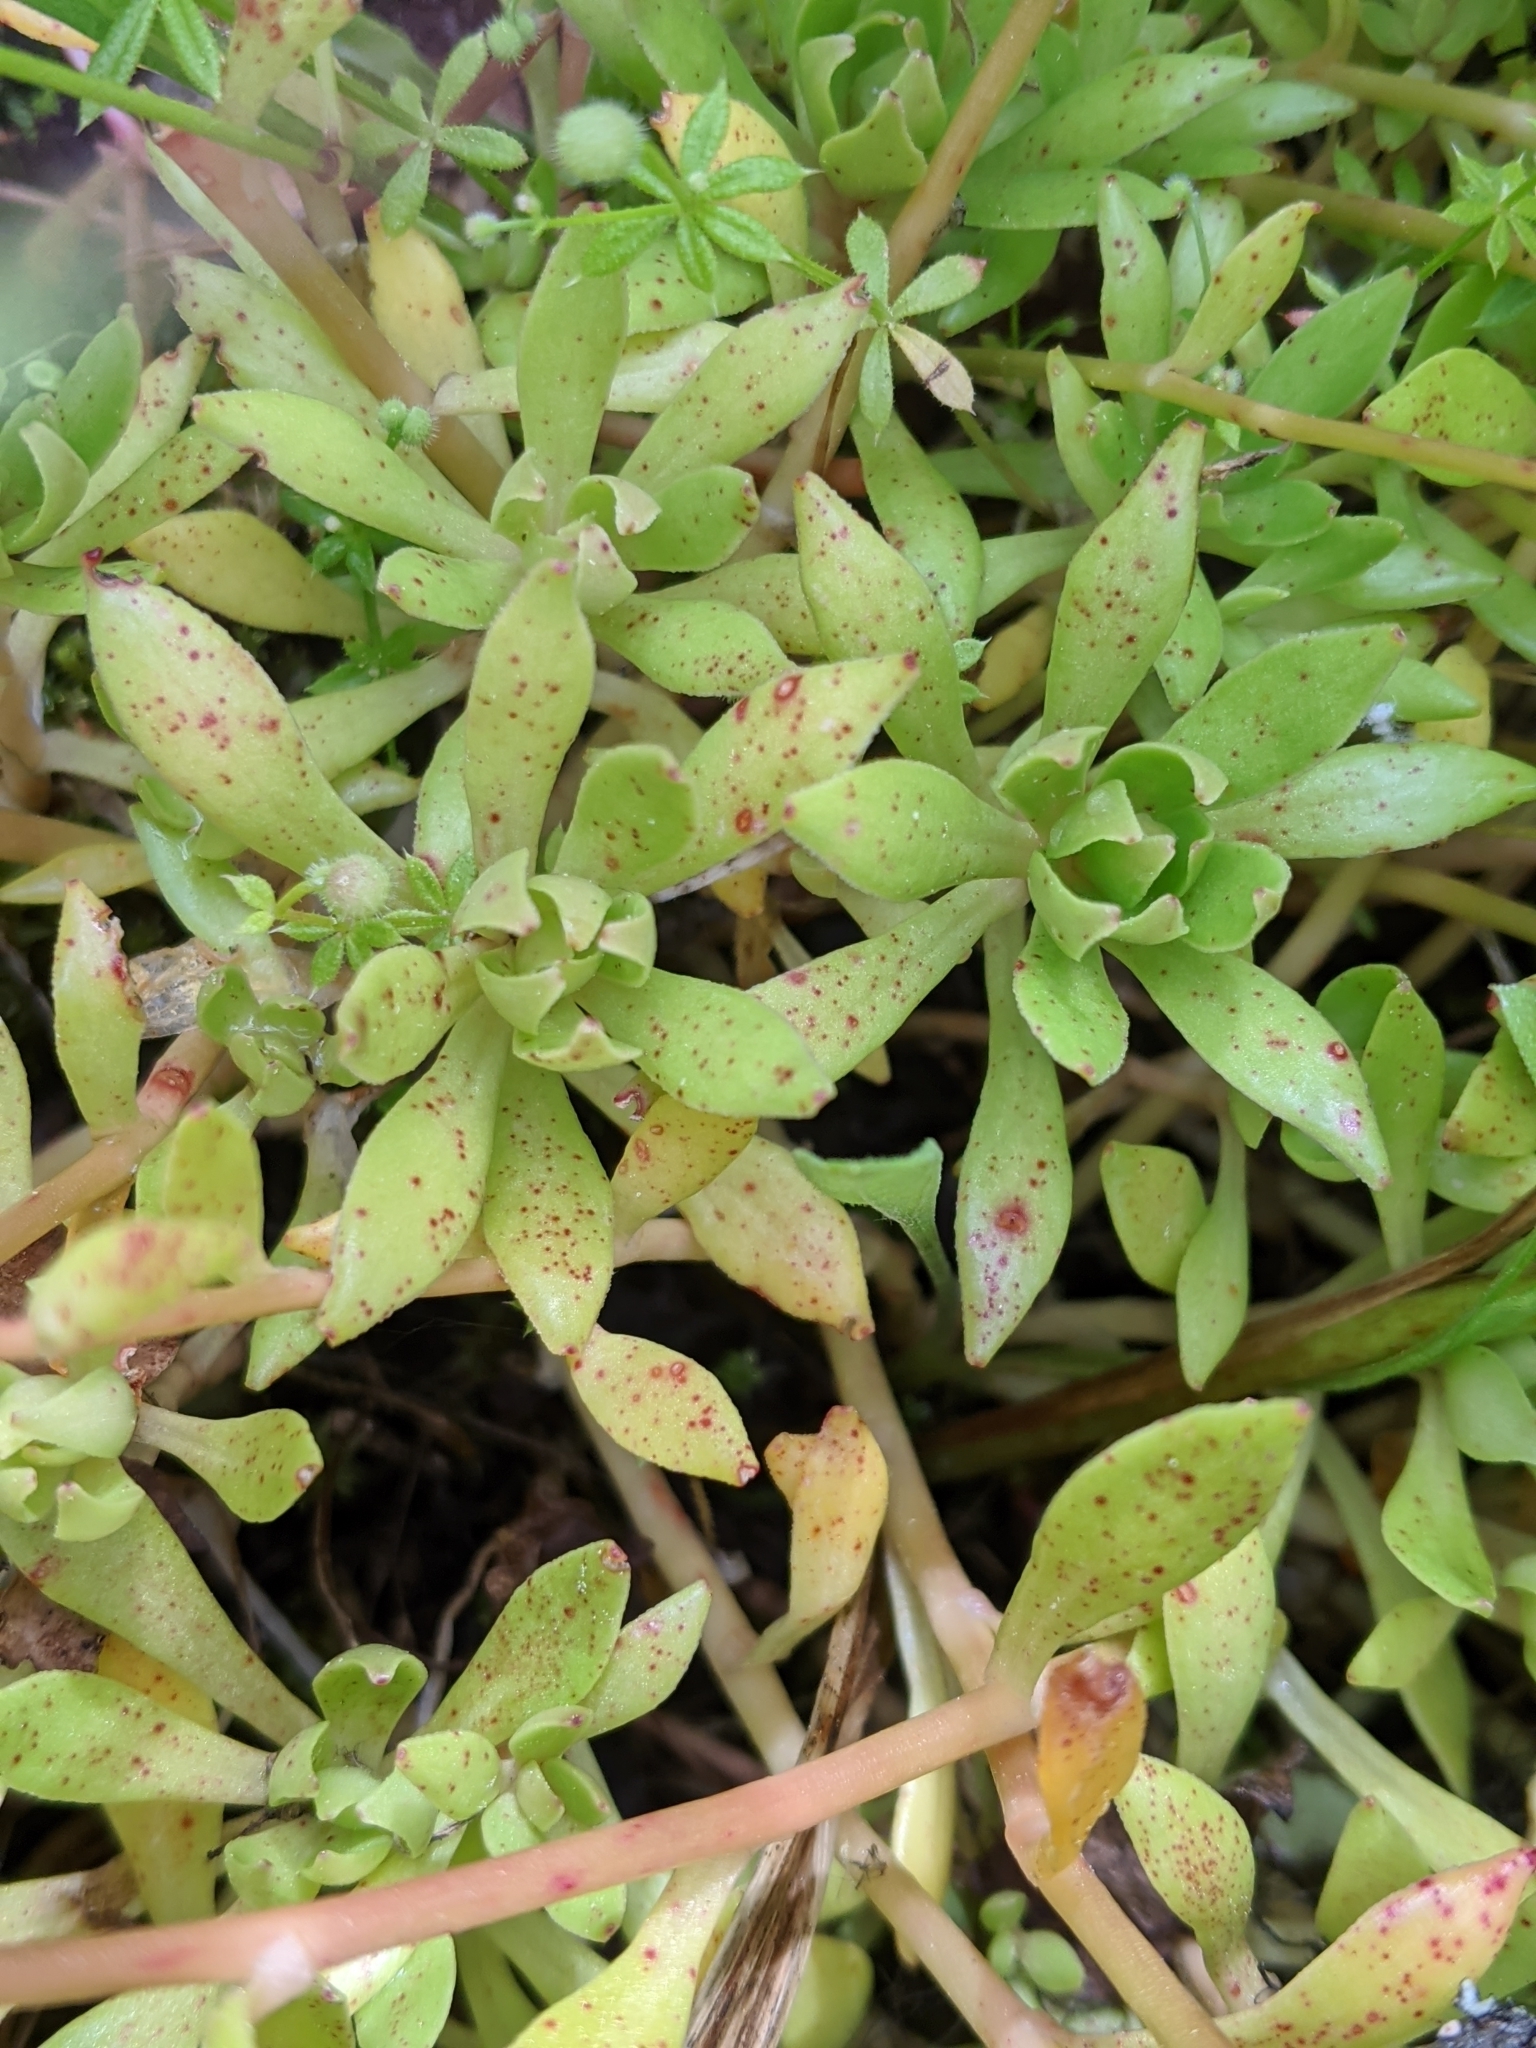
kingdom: Plantae
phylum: Tracheophyta
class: Magnoliopsida
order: Caryophyllales
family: Montiaceae
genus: Montia
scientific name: Montia parvifolia
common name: Small-leaved blinks
